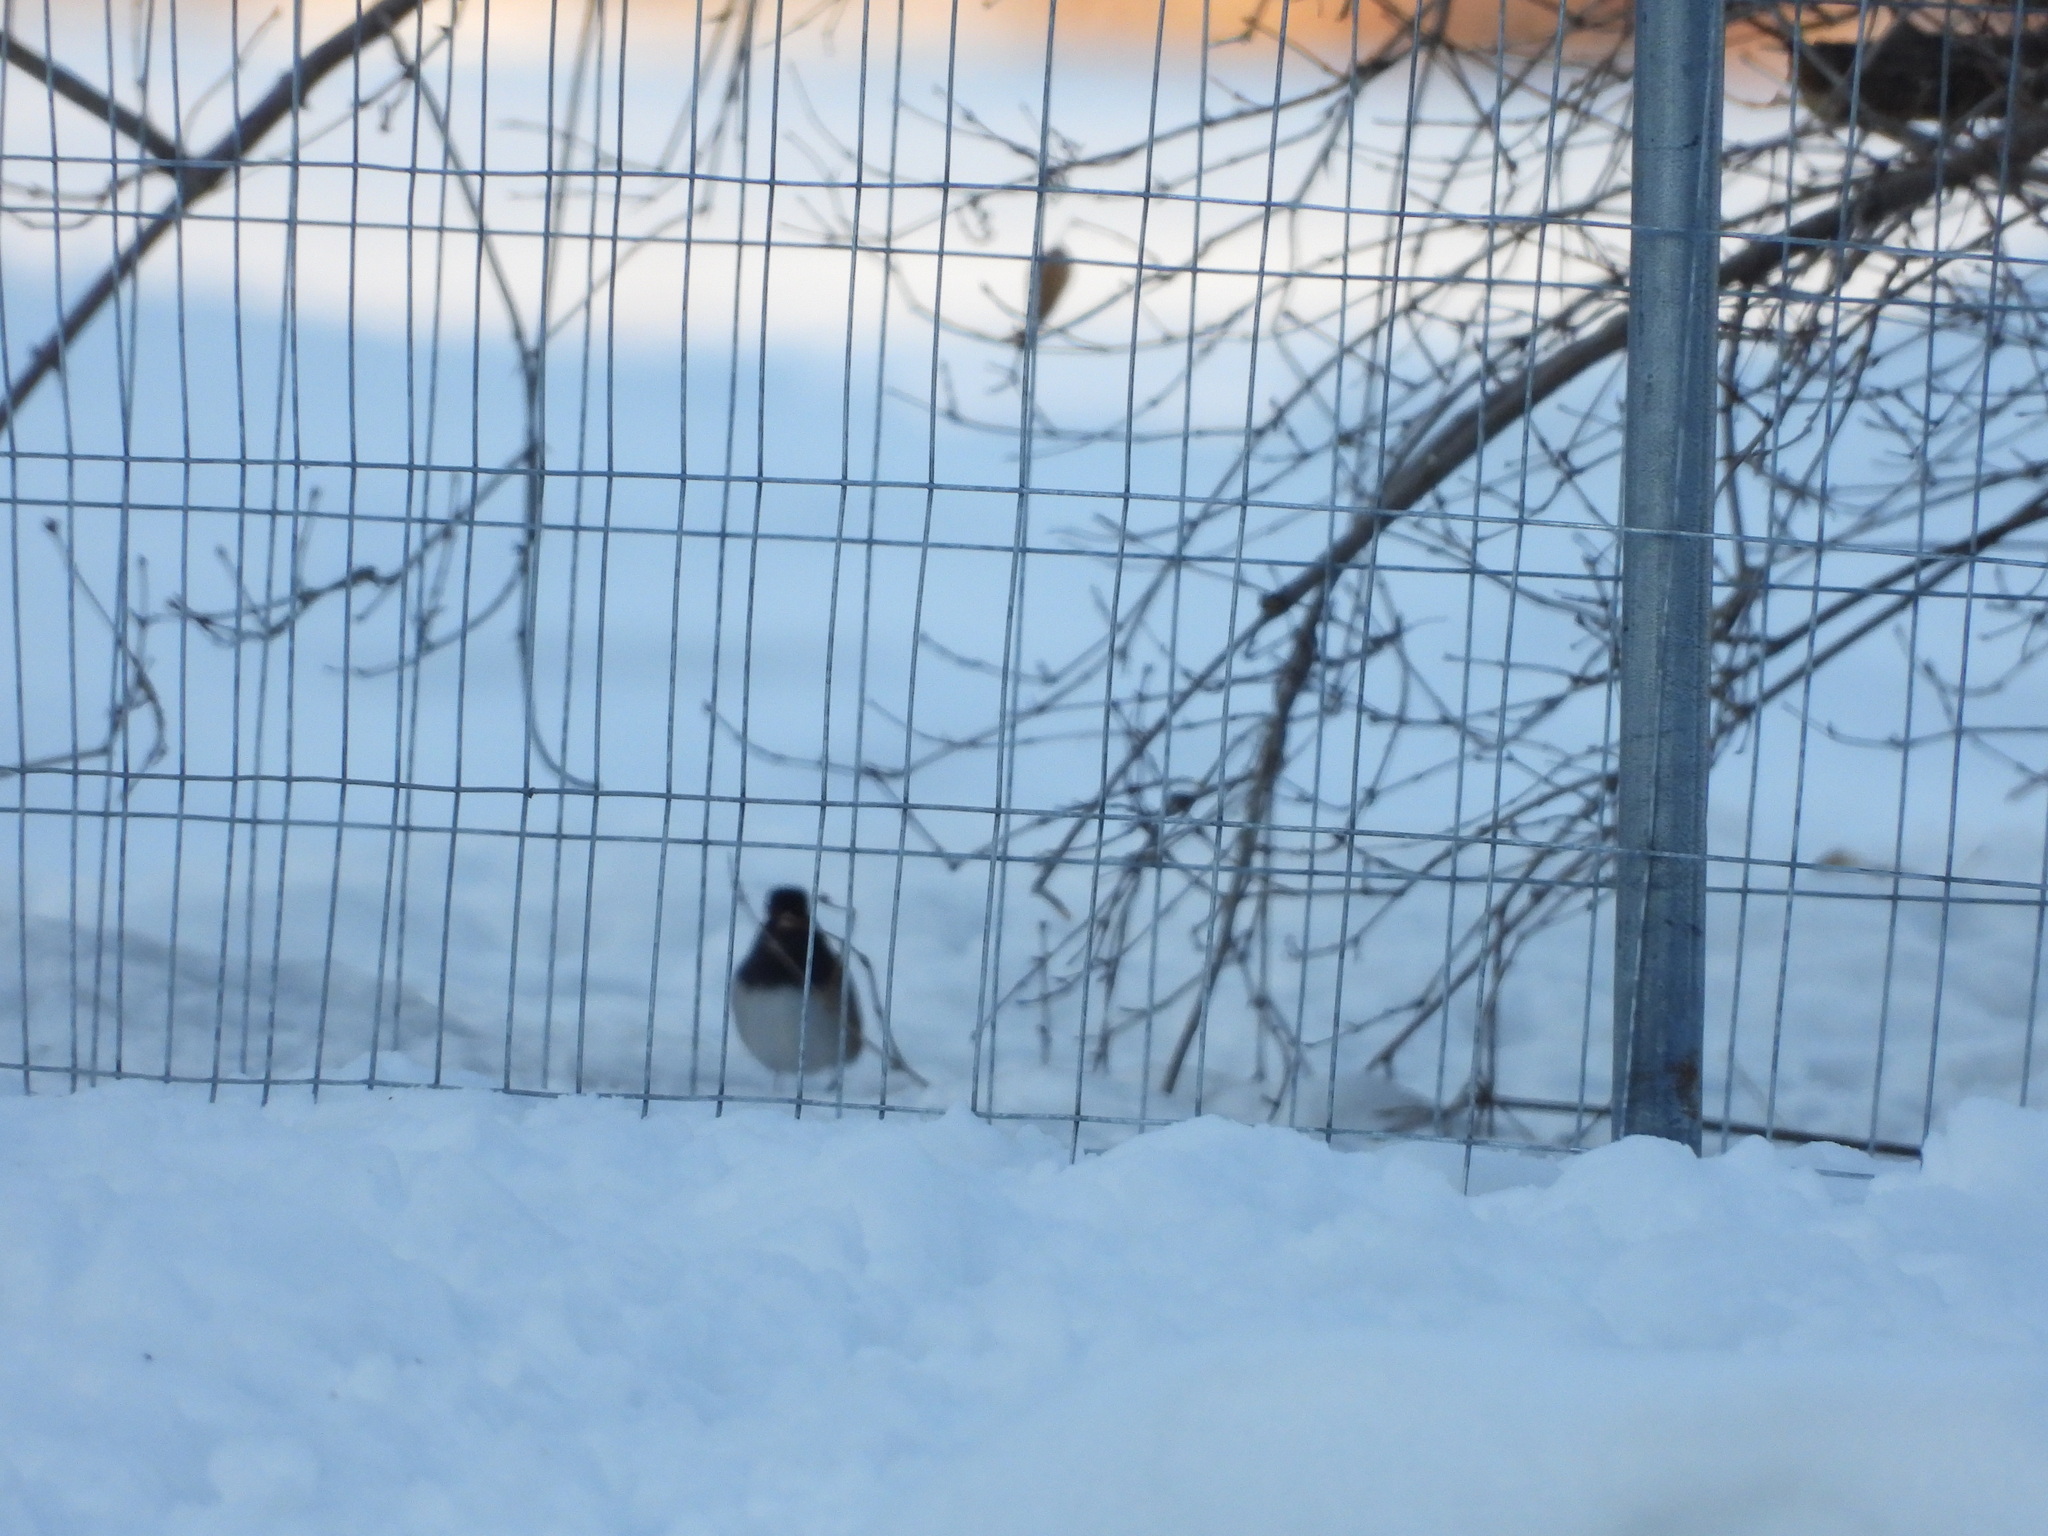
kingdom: Animalia
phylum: Chordata
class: Aves
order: Passeriformes
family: Passerellidae
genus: Junco
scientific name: Junco hyemalis
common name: Dark-eyed junco
